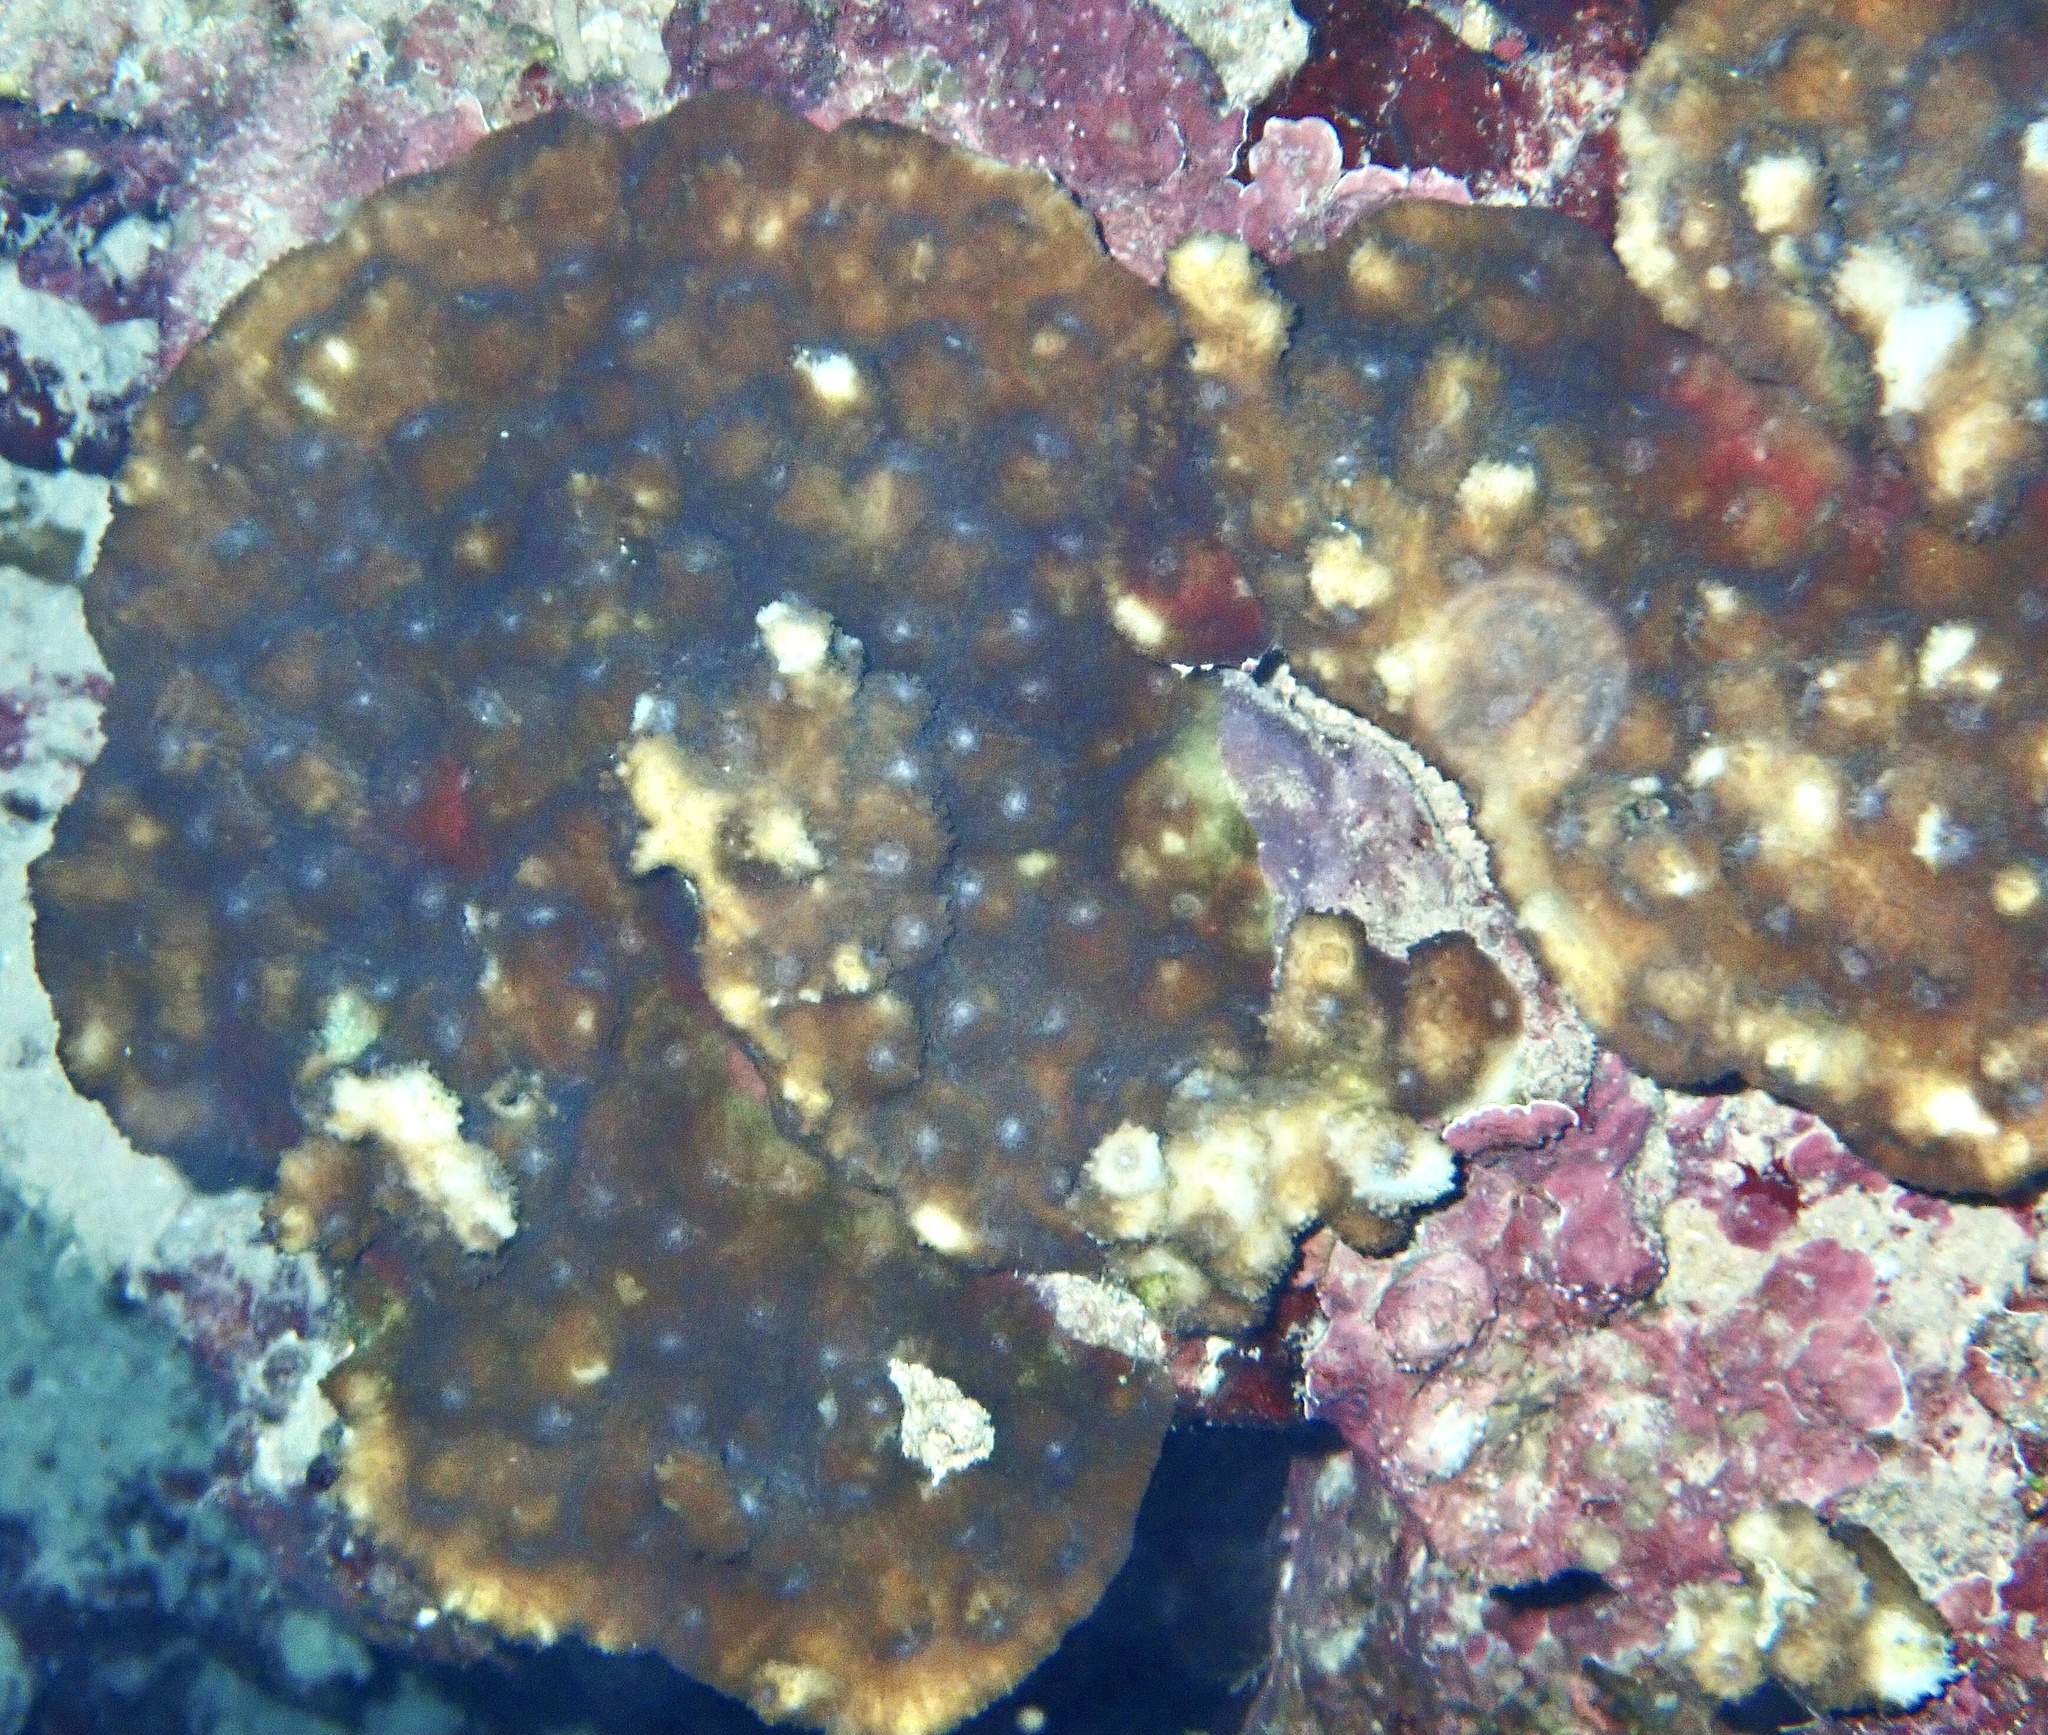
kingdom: Animalia
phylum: Cnidaria
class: Anthozoa
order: Scleractinia
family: Merulinidae
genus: Echinopora
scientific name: Echinopora hirsutissima
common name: Hedgehog coral
